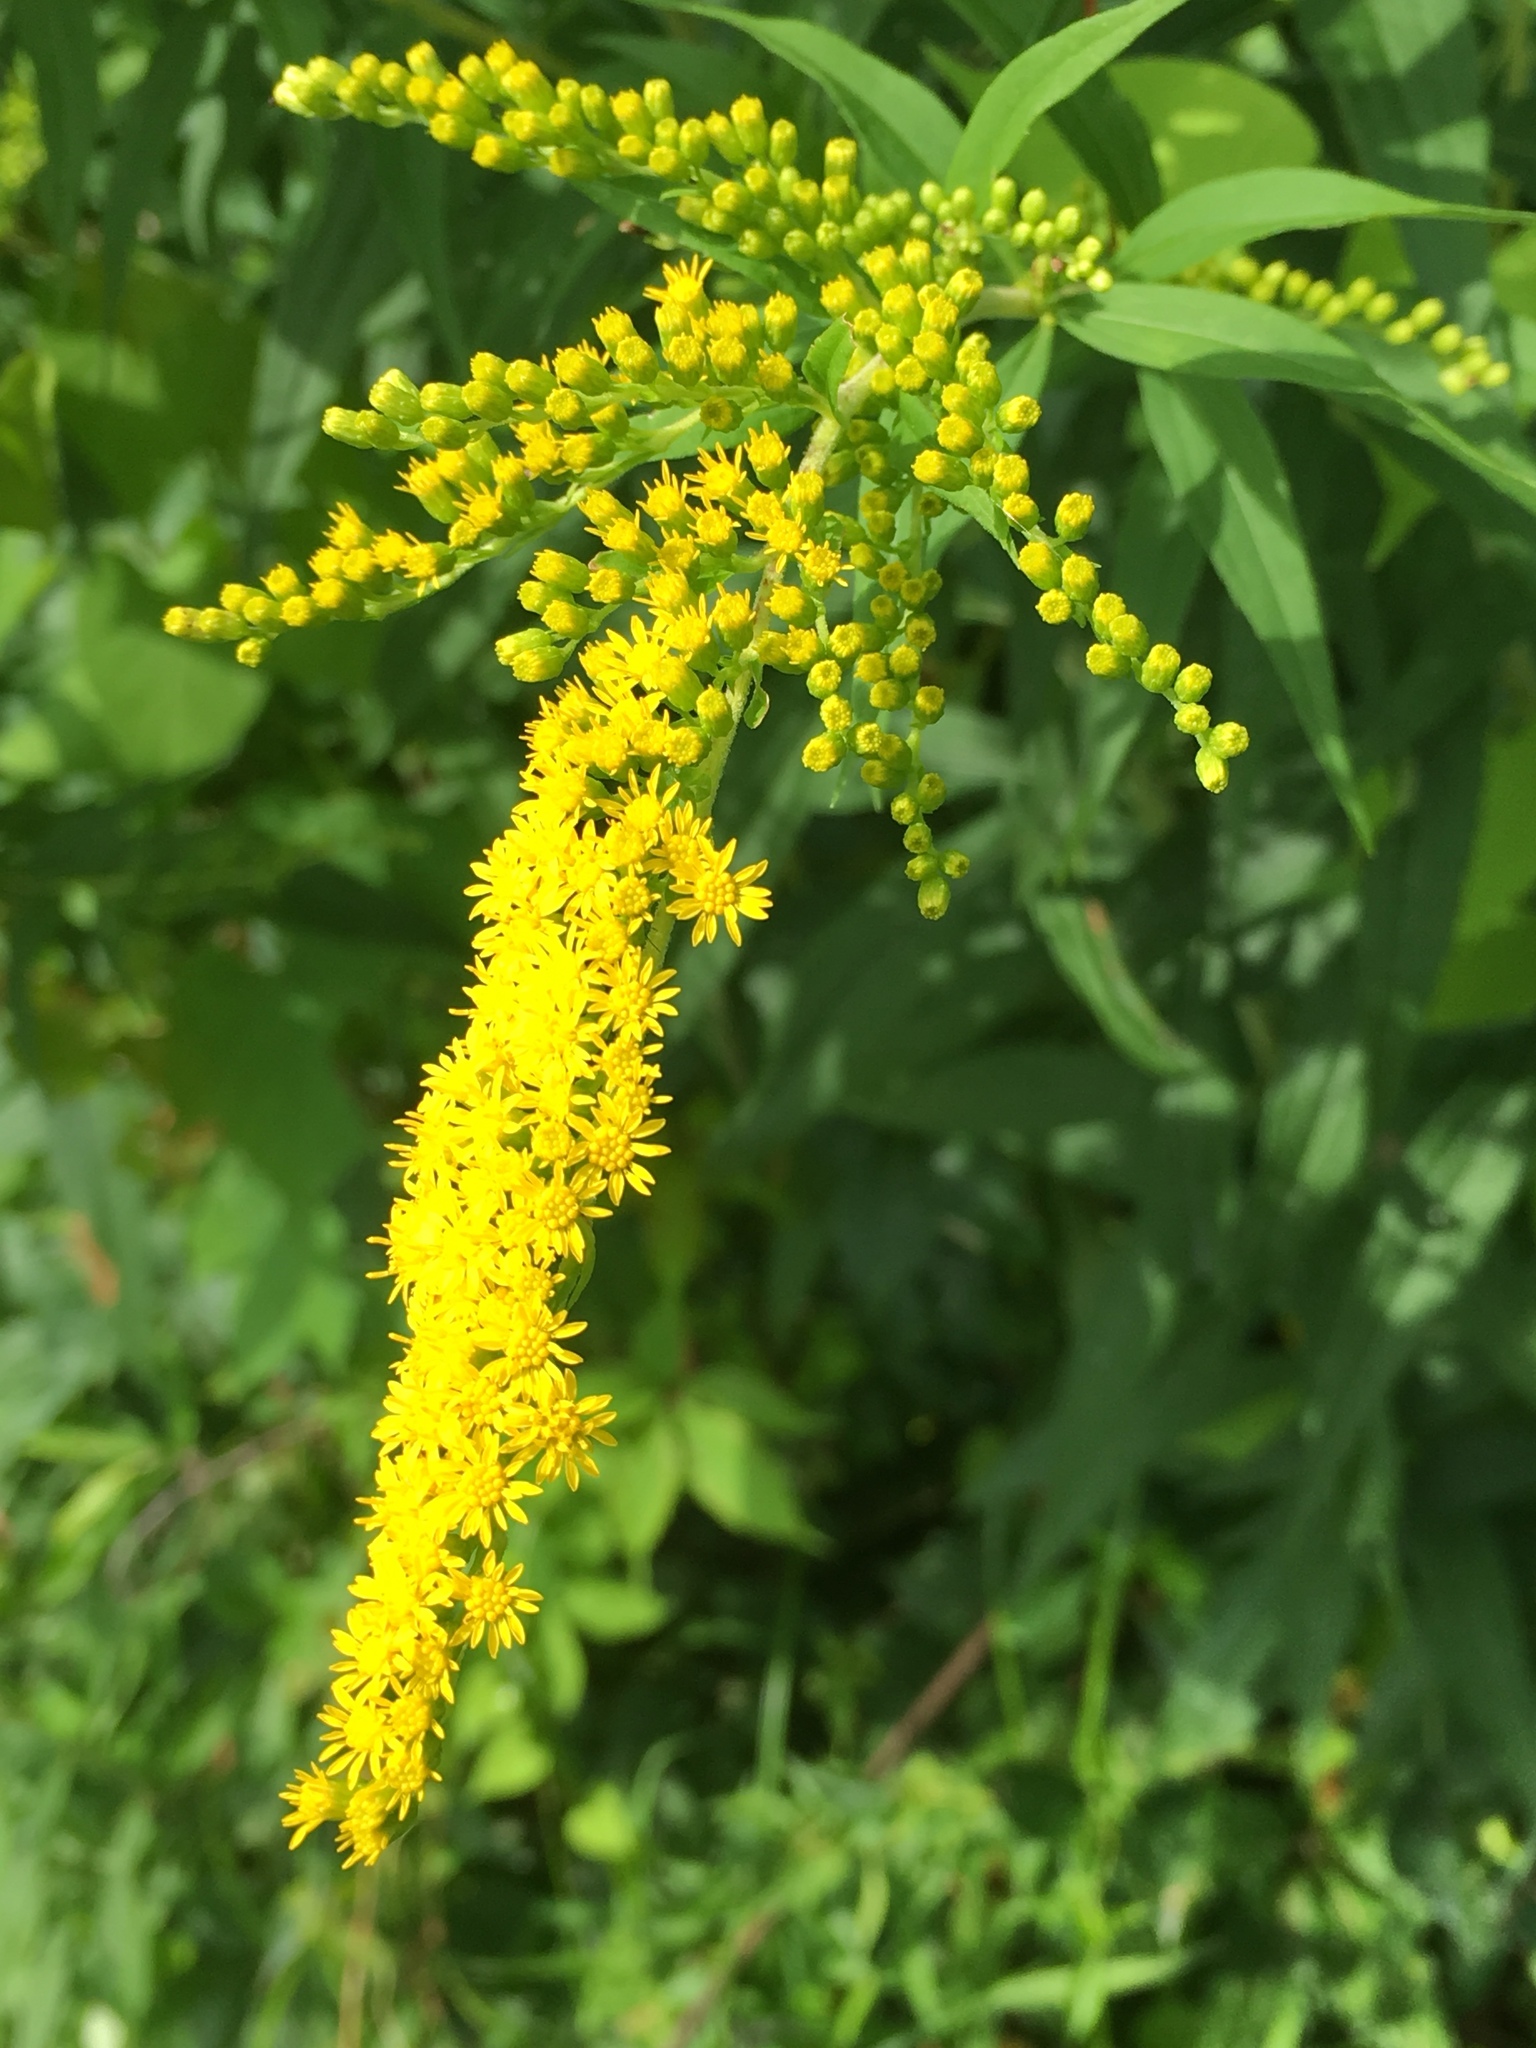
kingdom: Plantae
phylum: Tracheophyta
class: Magnoliopsida
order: Asterales
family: Asteraceae
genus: Solidago
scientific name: Solidago rugosa
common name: Rough-stemmed goldenrod
